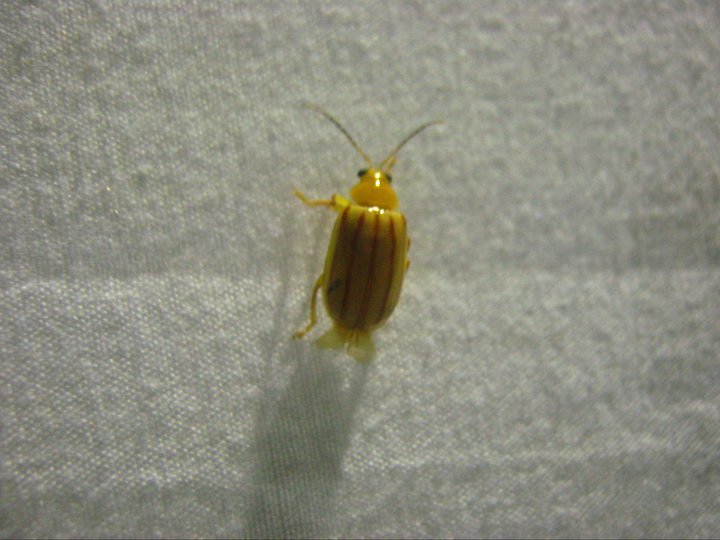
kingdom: Animalia
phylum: Arthropoda
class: Insecta
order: Coleoptera
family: Chrysomelidae
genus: Exora
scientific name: Exora encaustica
